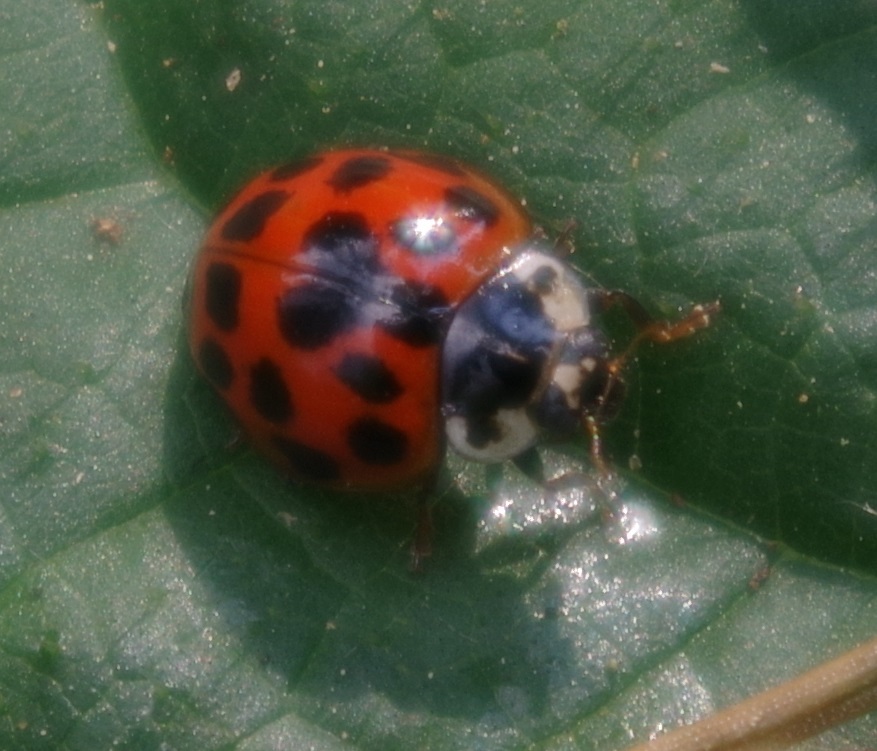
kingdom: Animalia
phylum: Arthropoda
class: Insecta
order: Coleoptera
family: Coccinellidae
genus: Harmonia
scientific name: Harmonia axyridis
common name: Harlequin ladybird
